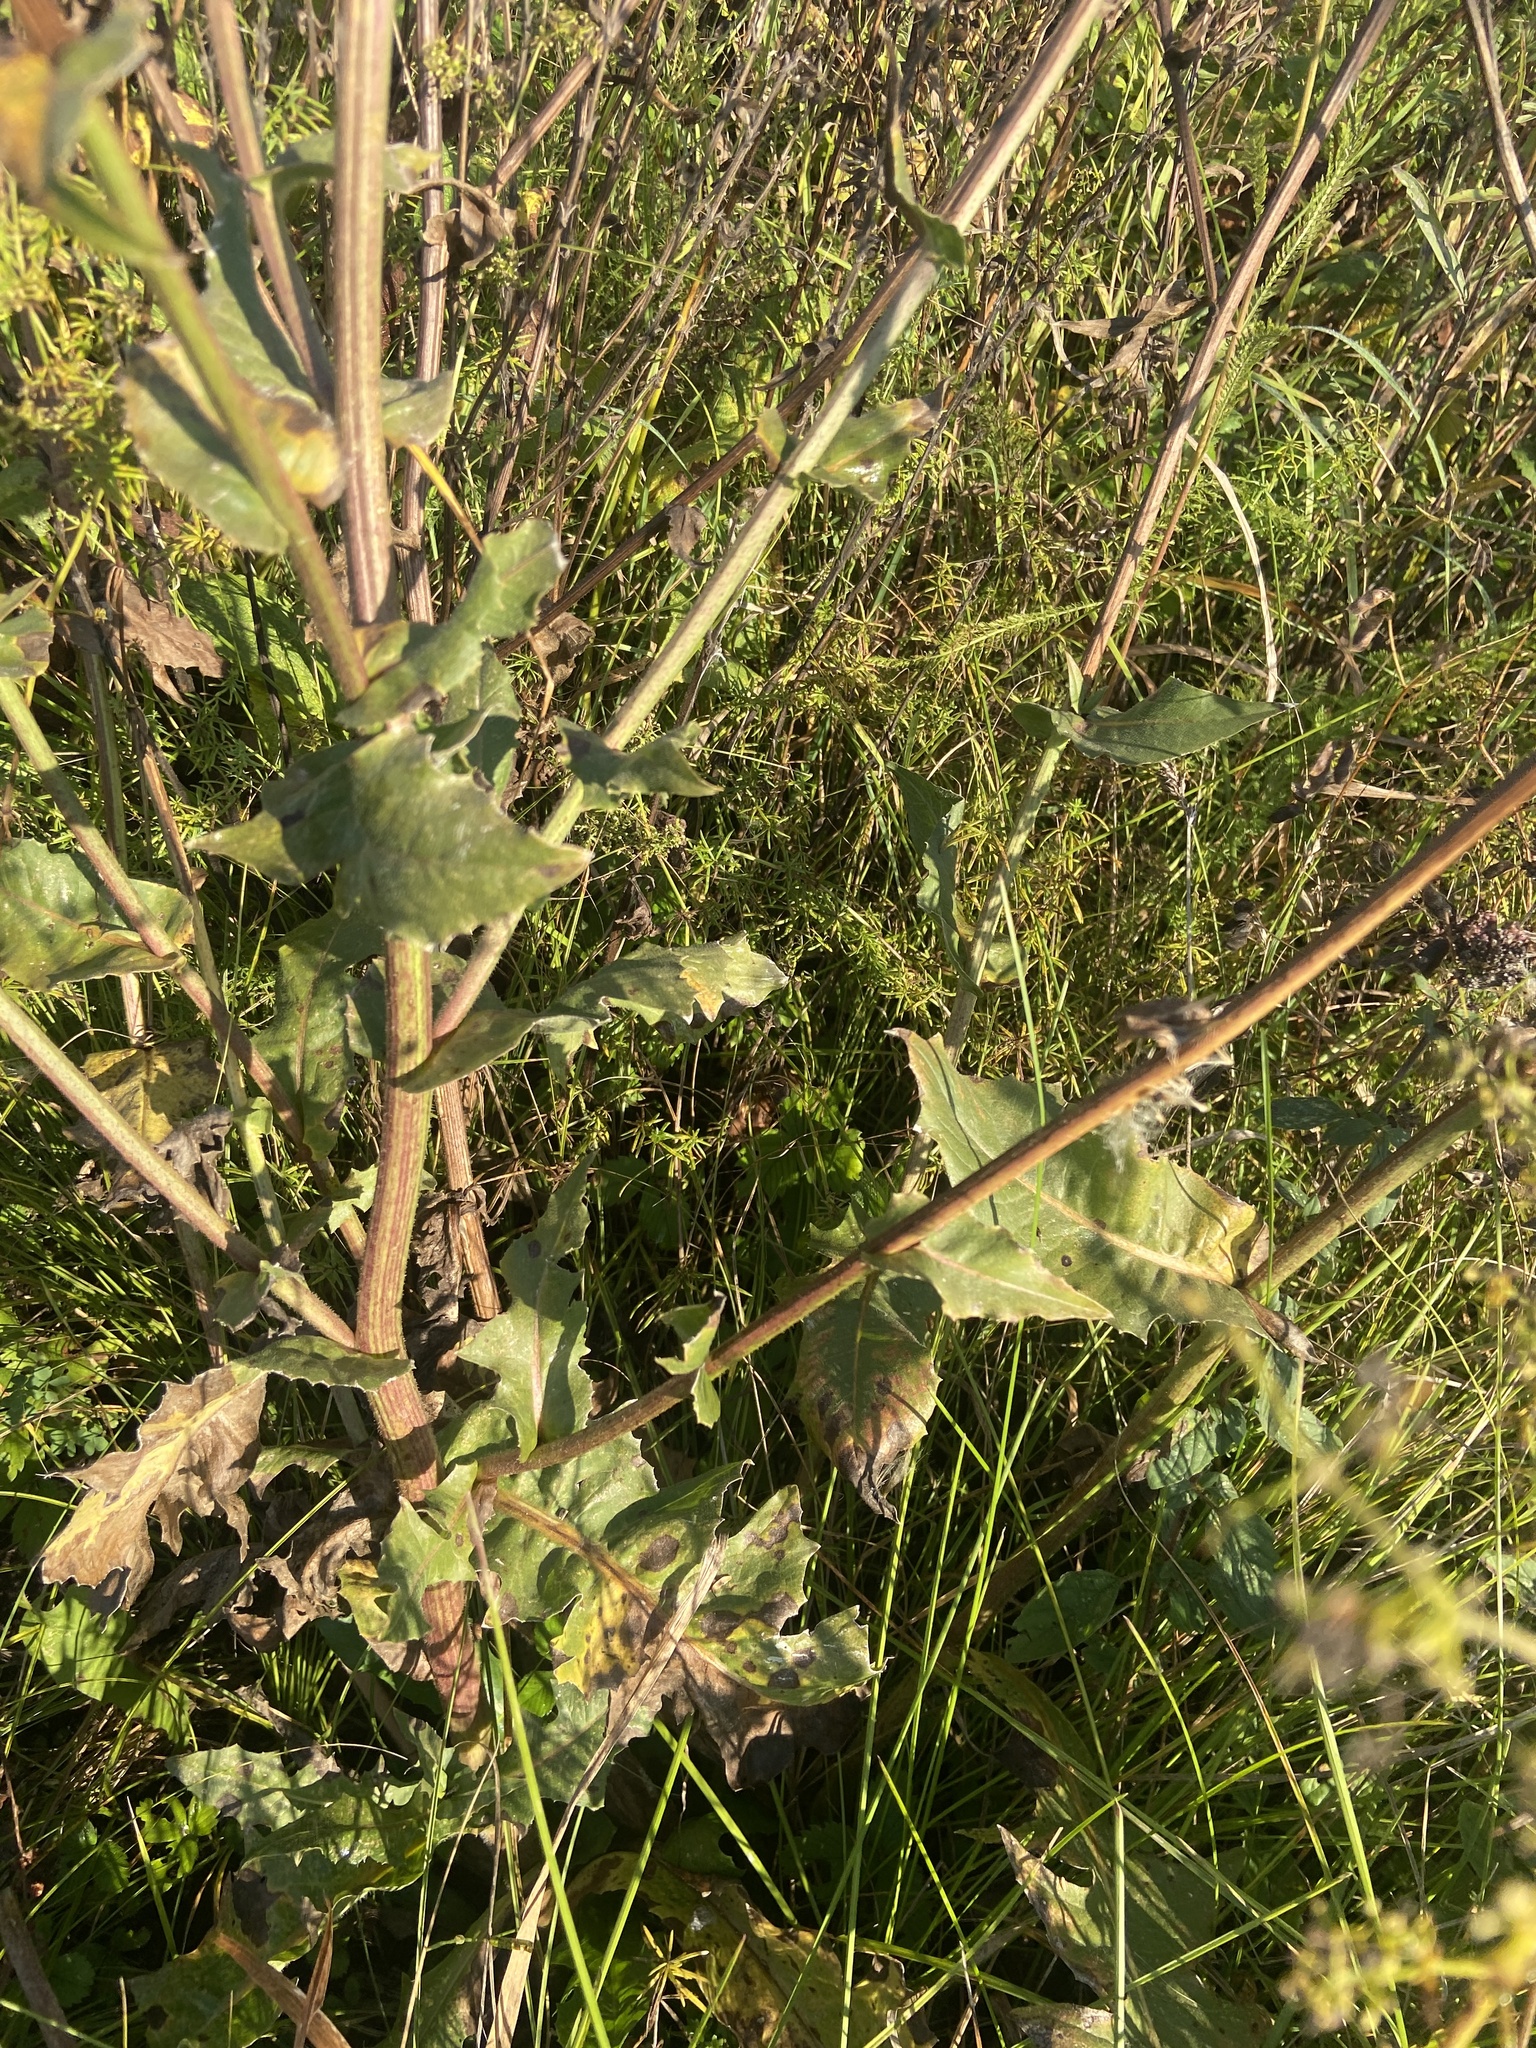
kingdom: Plantae
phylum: Tracheophyta
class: Magnoliopsida
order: Asterales
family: Asteraceae
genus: Cichorium
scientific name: Cichorium intybus
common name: Chicory
